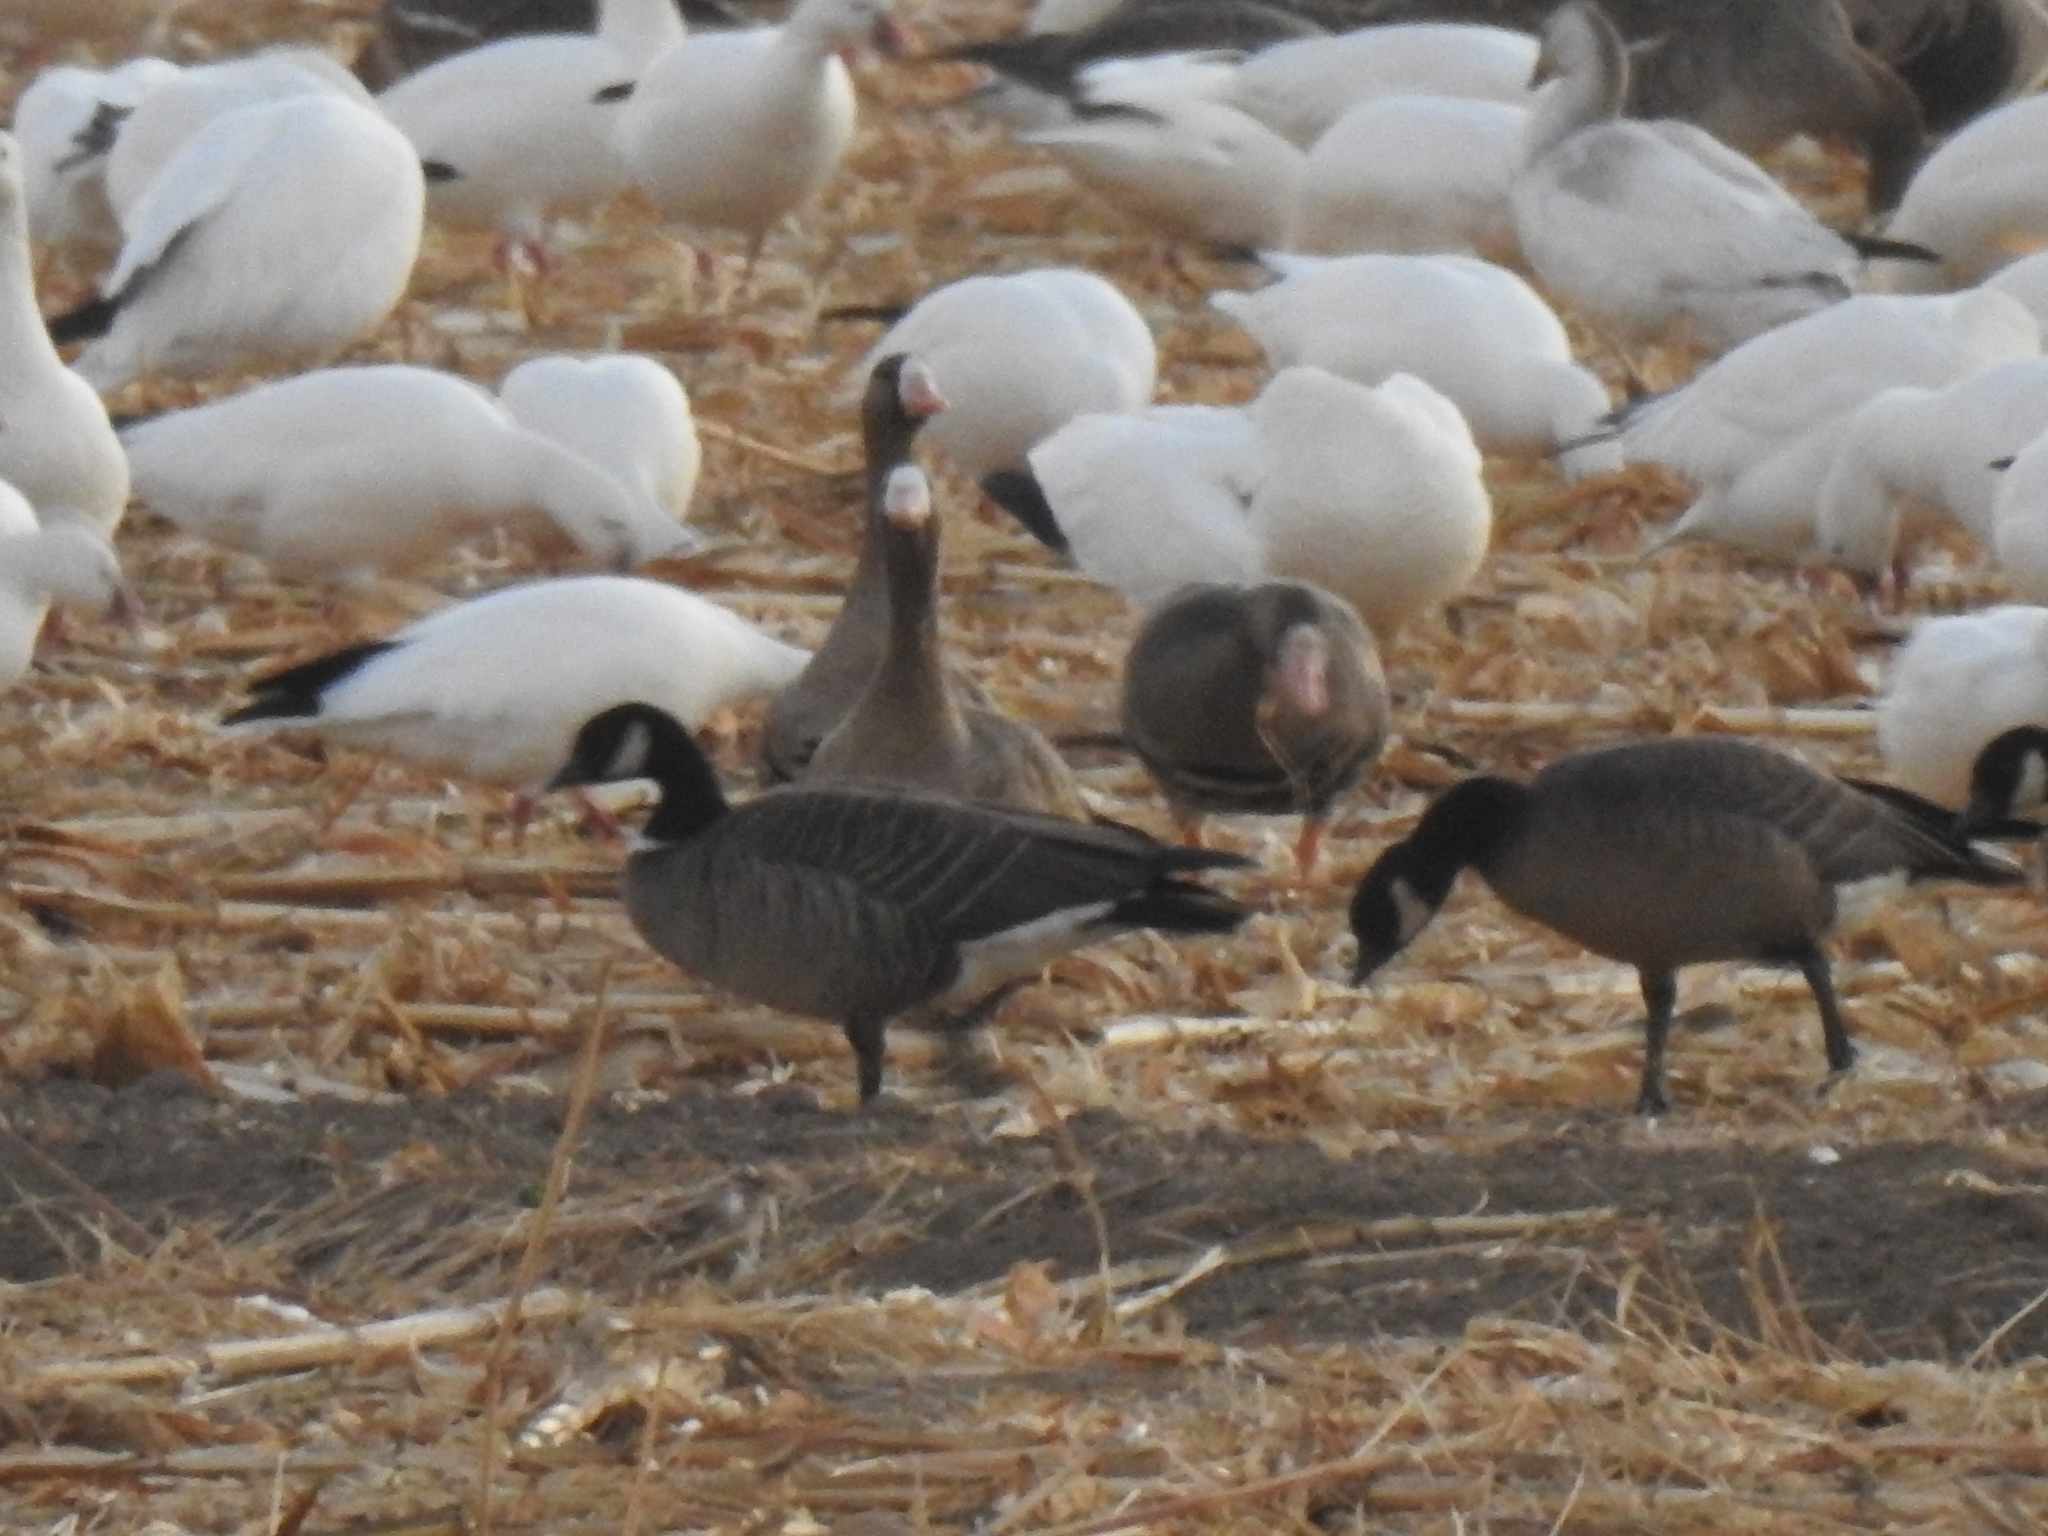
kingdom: Animalia
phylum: Chordata
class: Aves
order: Anseriformes
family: Anatidae
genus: Branta
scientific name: Branta hutchinsii
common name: Cackling goose
